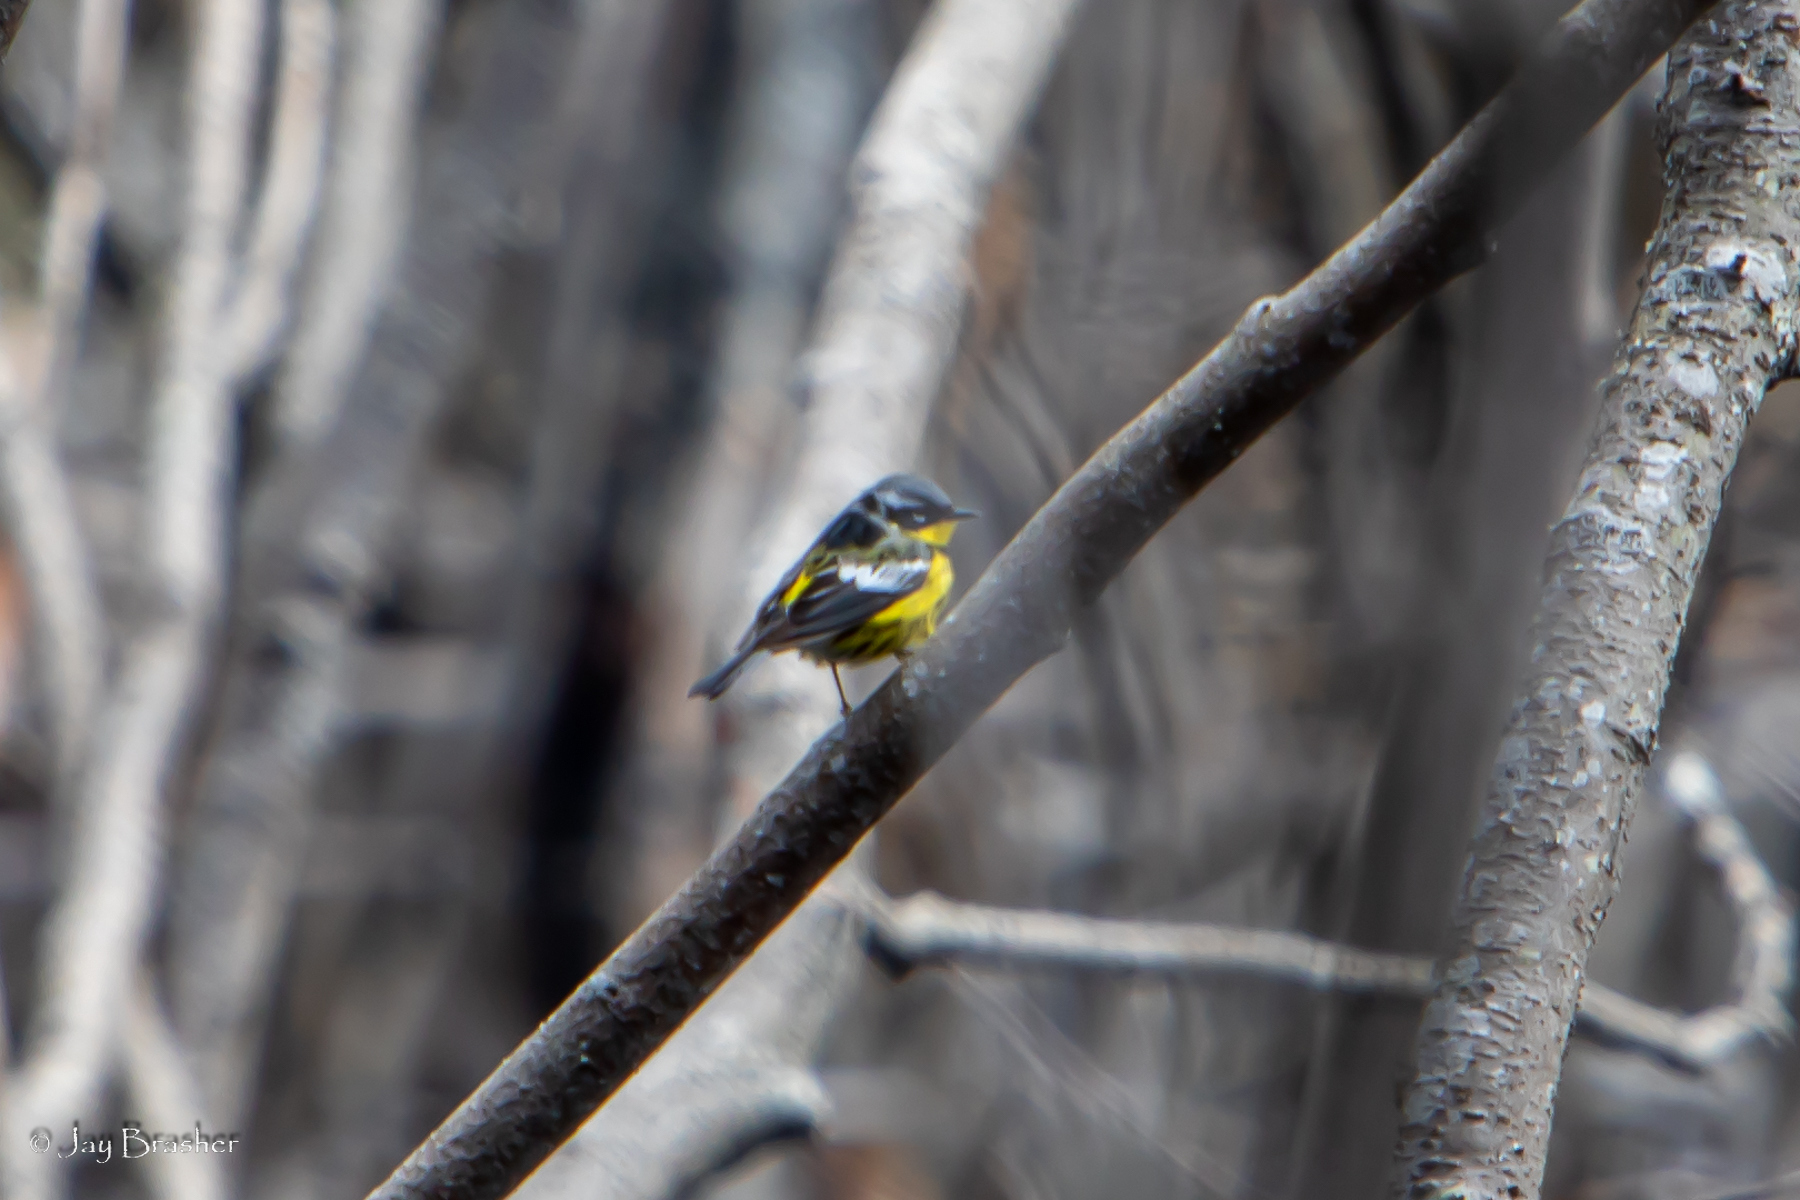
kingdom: Animalia
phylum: Chordata
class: Aves
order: Passeriformes
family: Parulidae
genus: Setophaga
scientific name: Setophaga magnolia
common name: Magnolia warbler
